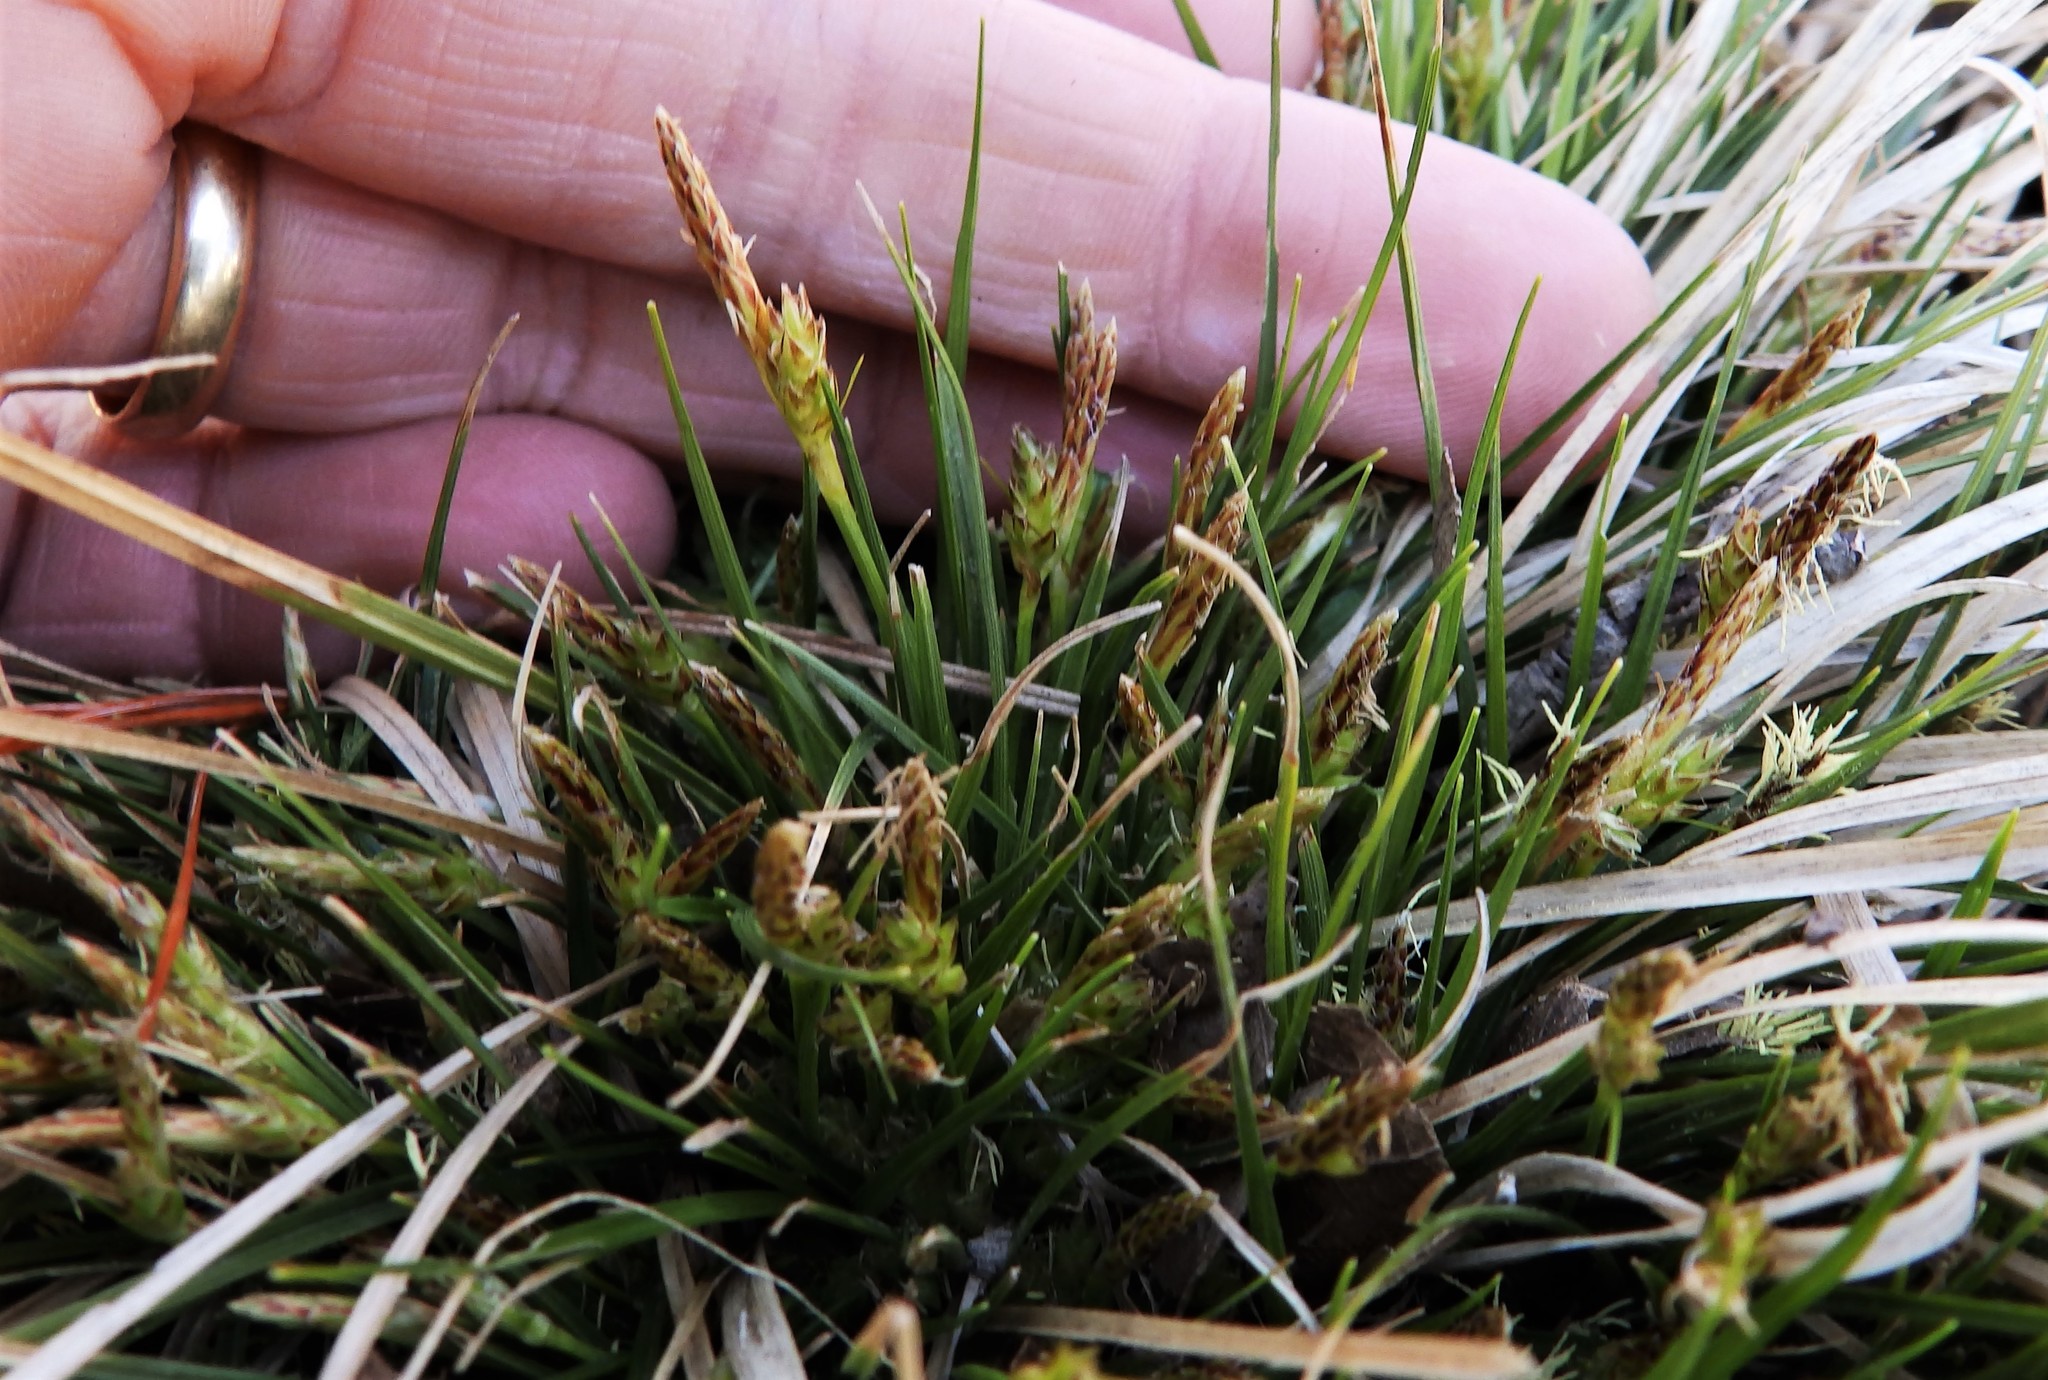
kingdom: Plantae
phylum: Tracheophyta
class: Liliopsida
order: Poales
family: Cyperaceae
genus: Carex
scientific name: Carex umbellata
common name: Early oak sedge
